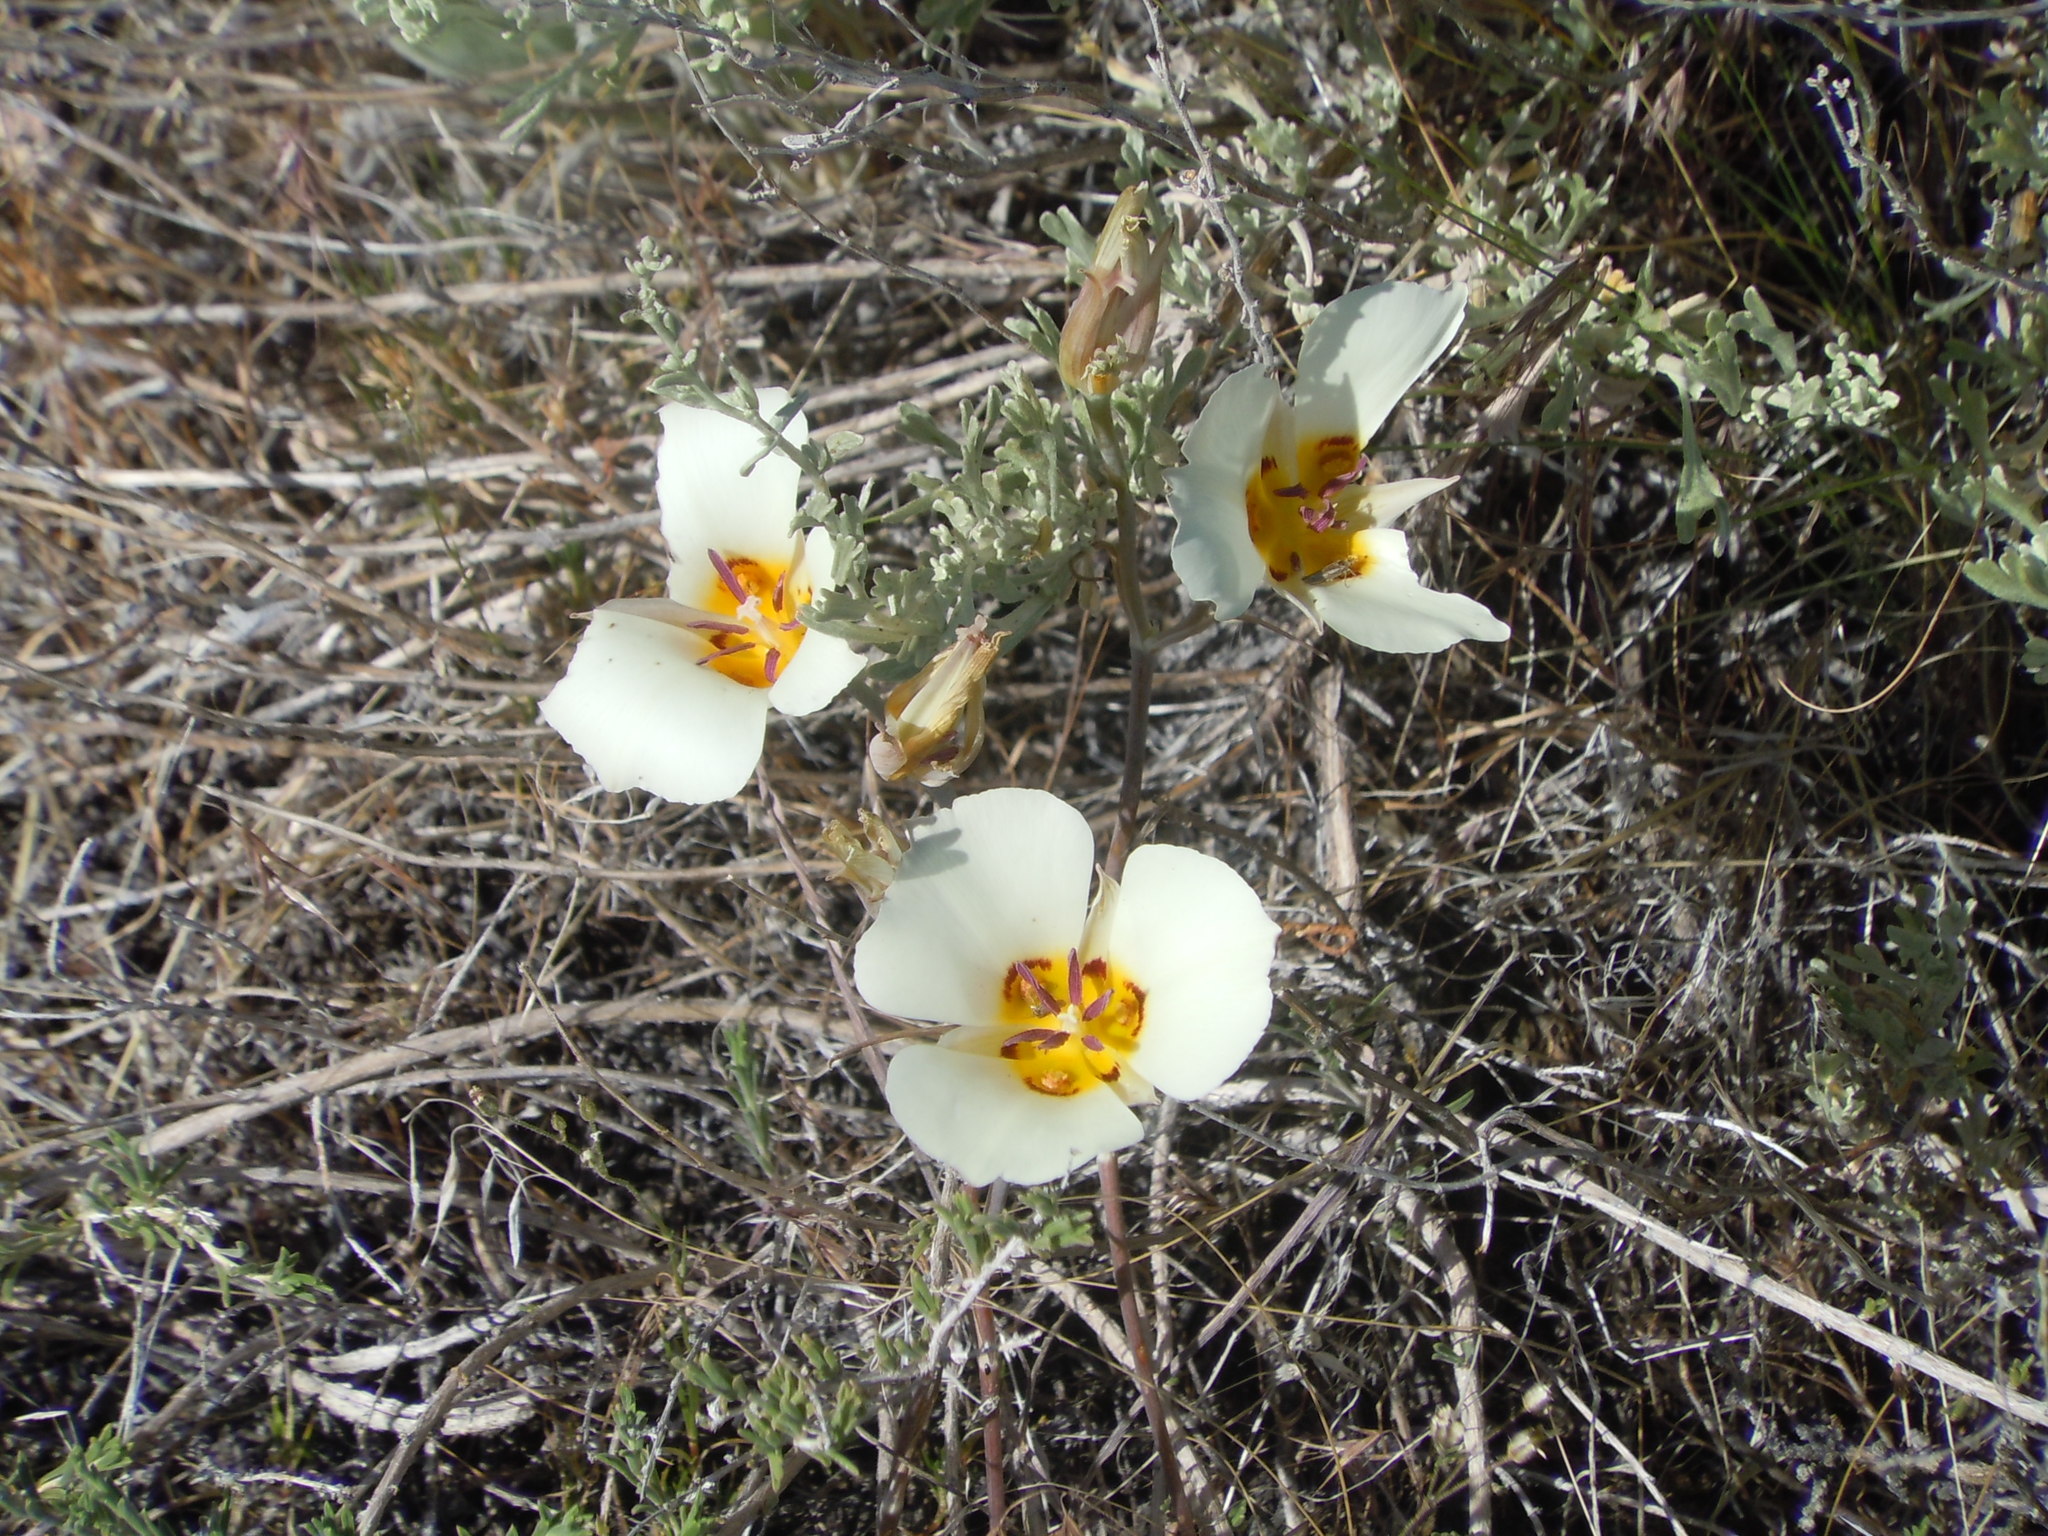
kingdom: Plantae
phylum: Tracheophyta
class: Liliopsida
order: Liliales
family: Liliaceae
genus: Calochortus
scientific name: Calochortus bruneaunis
